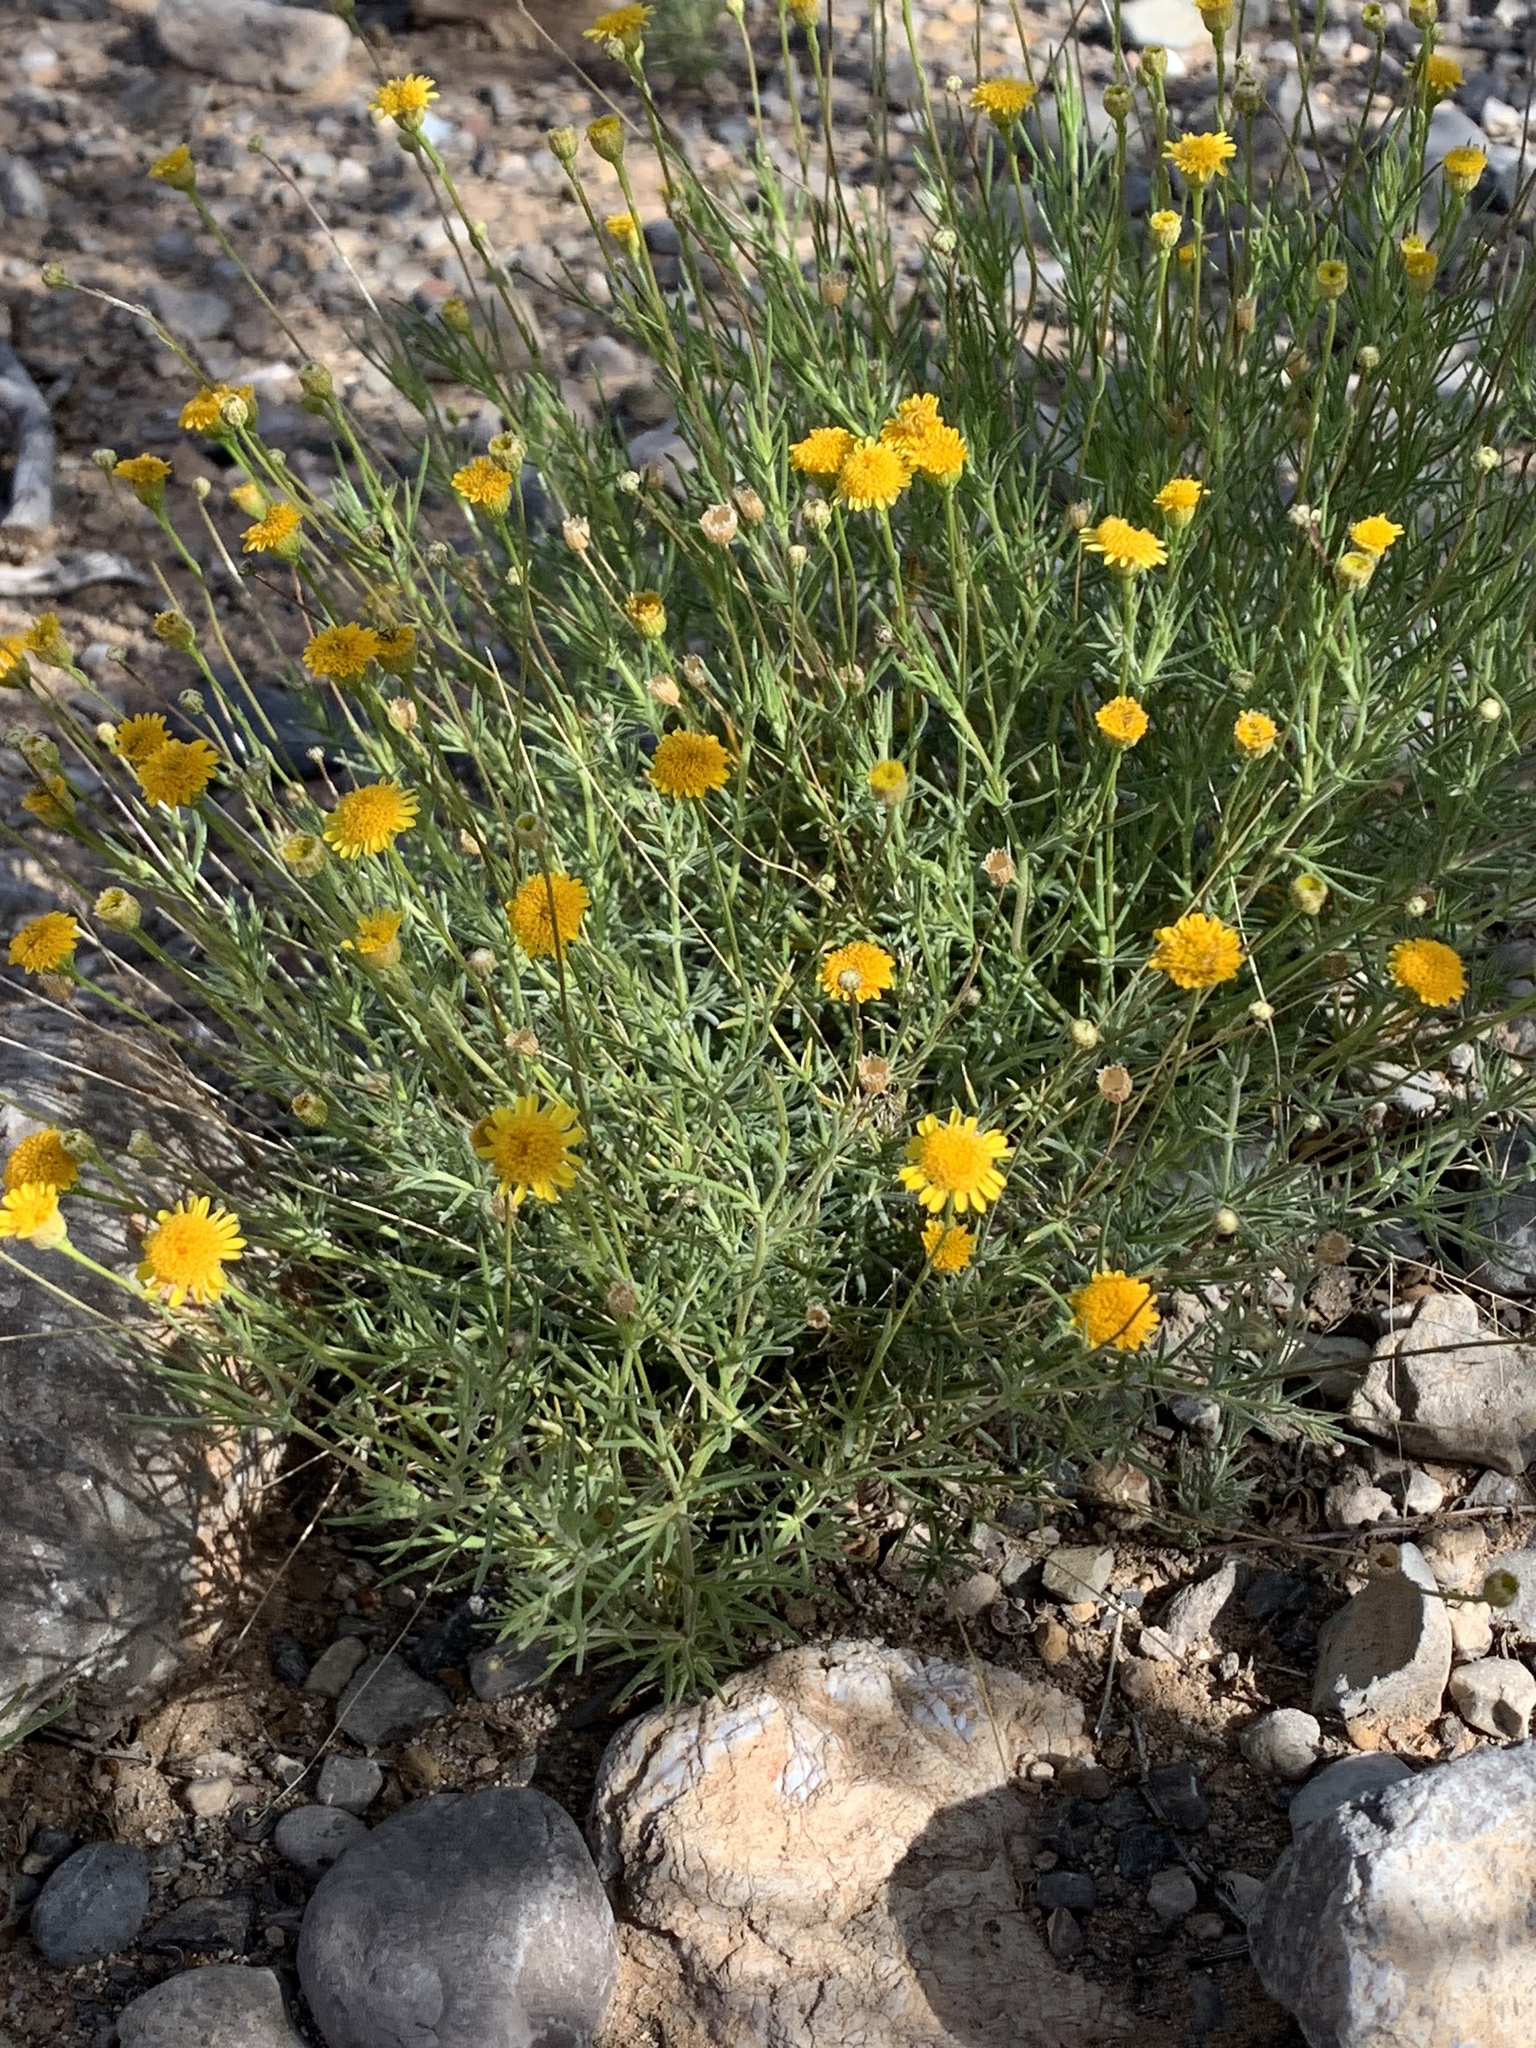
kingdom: Plantae
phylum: Tracheophyta
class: Magnoliopsida
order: Asterales
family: Asteraceae
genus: Thymophylla
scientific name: Thymophylla pentachaeta
